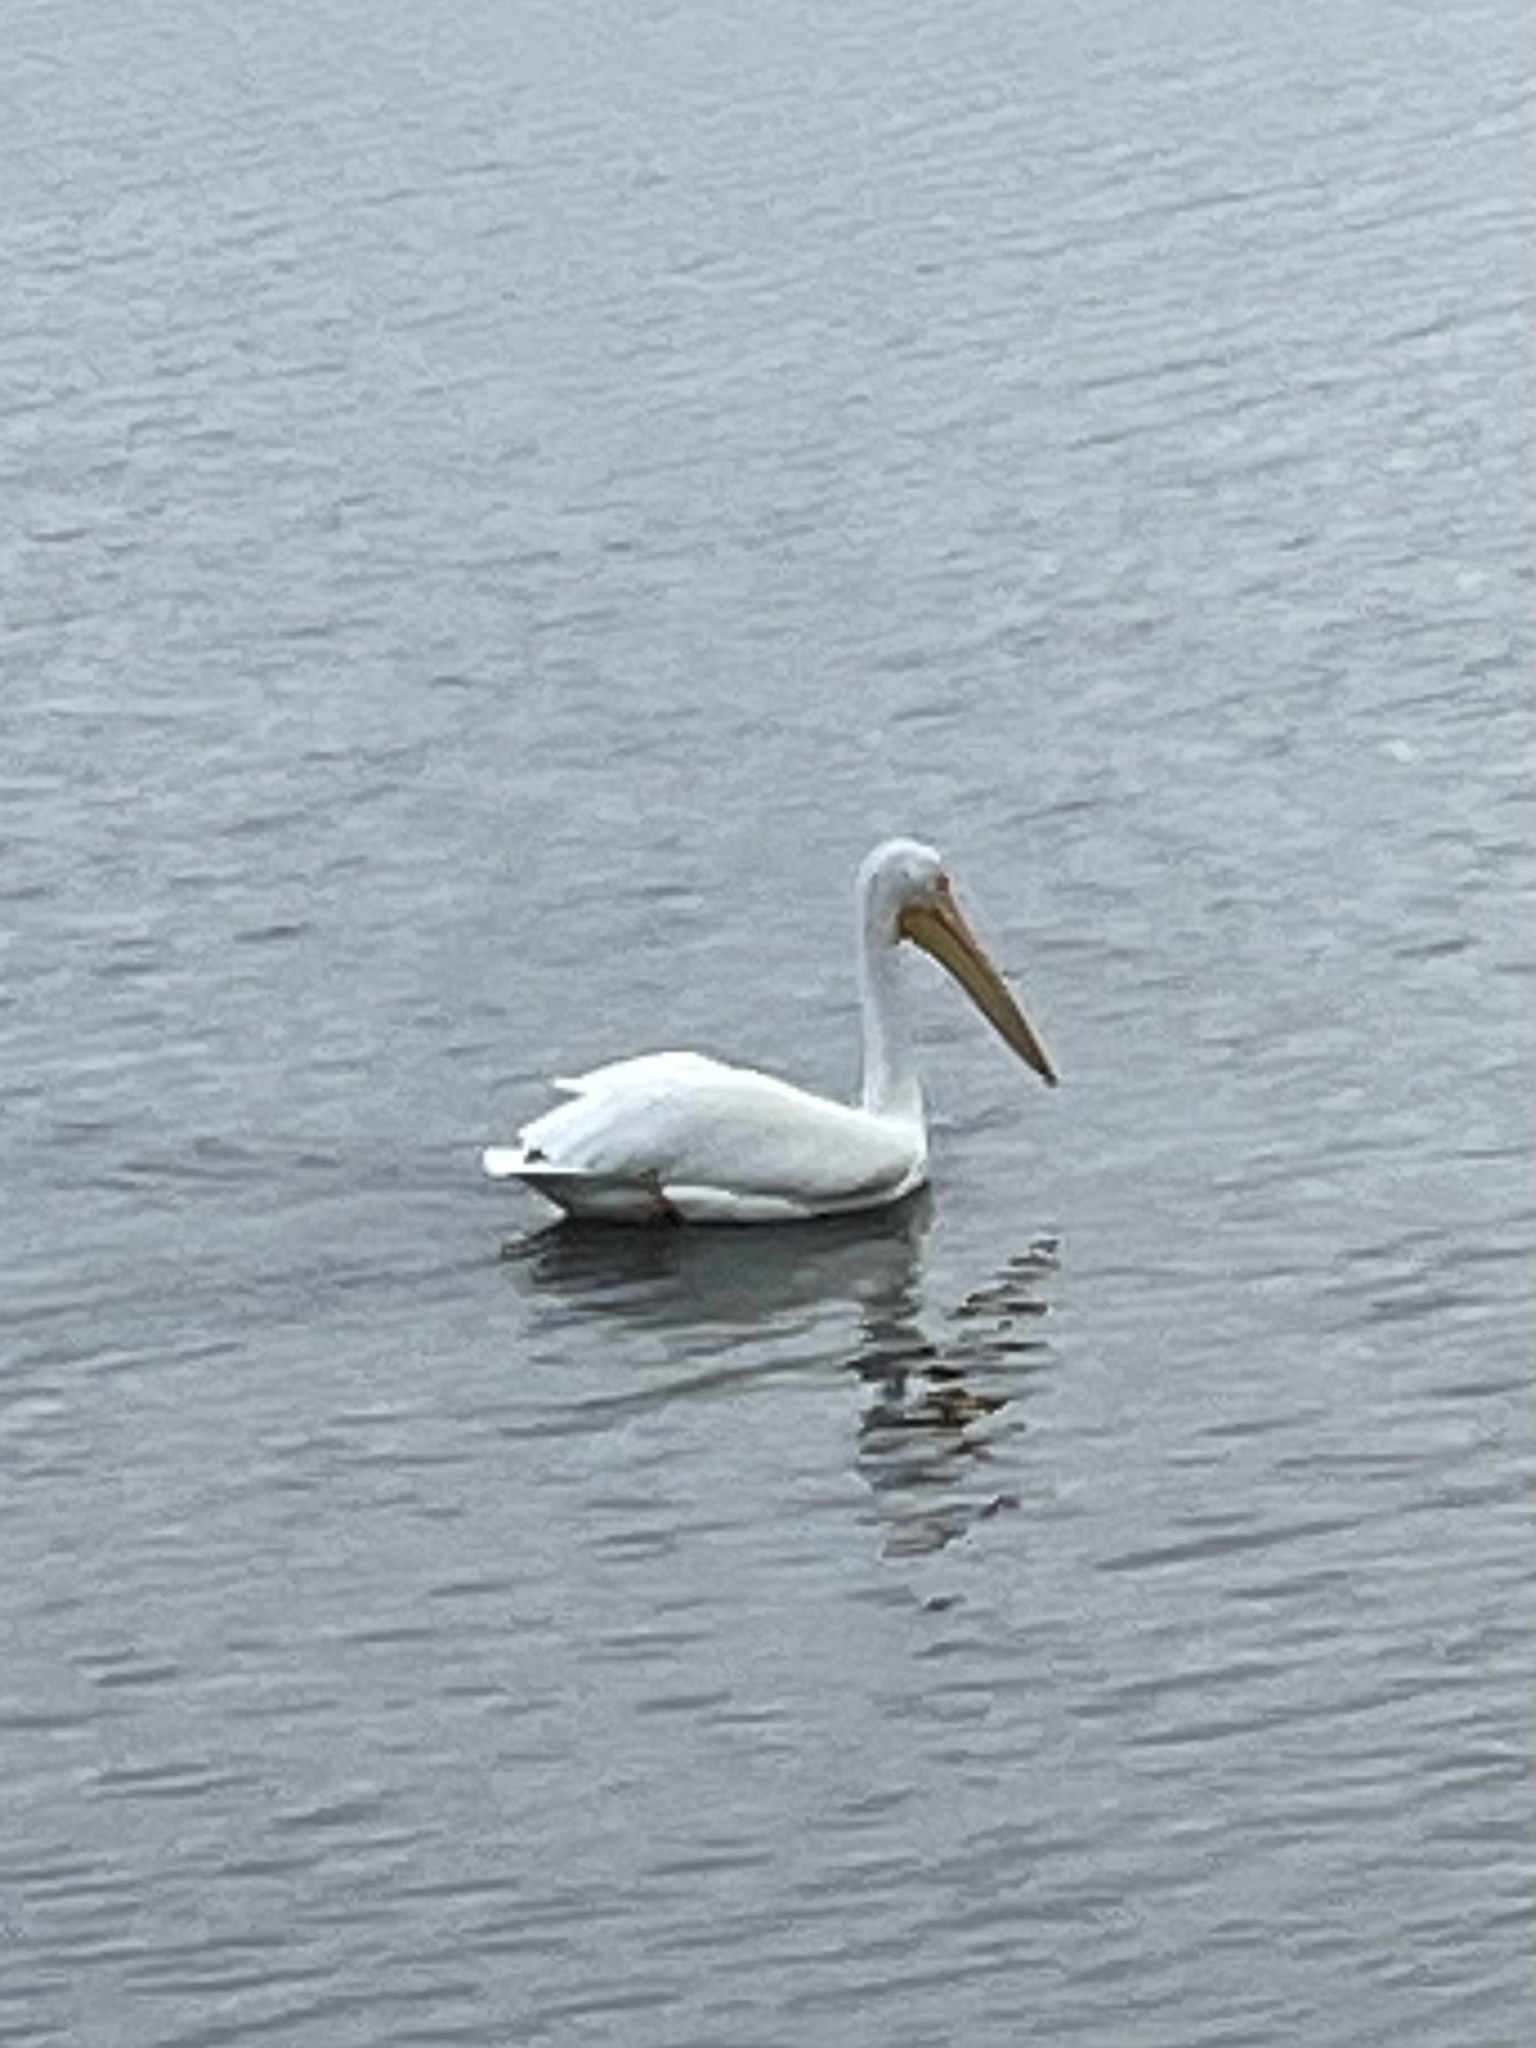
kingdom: Animalia
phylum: Chordata
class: Aves
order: Pelecaniformes
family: Pelecanidae
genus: Pelecanus
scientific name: Pelecanus erythrorhynchos
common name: American white pelican
